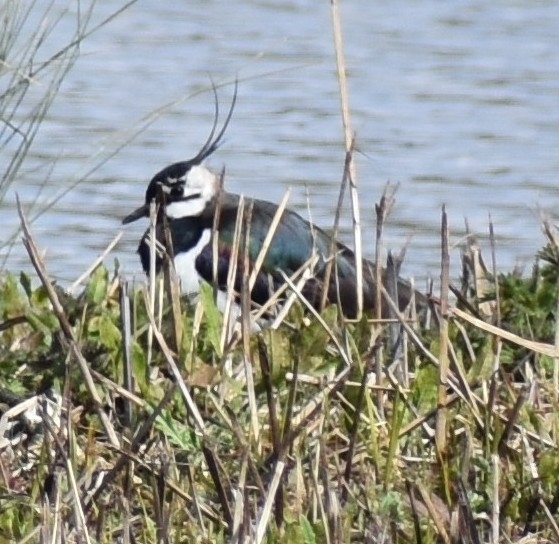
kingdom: Animalia
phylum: Chordata
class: Aves
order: Charadriiformes
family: Charadriidae
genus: Vanellus
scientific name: Vanellus vanellus
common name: Northern lapwing
